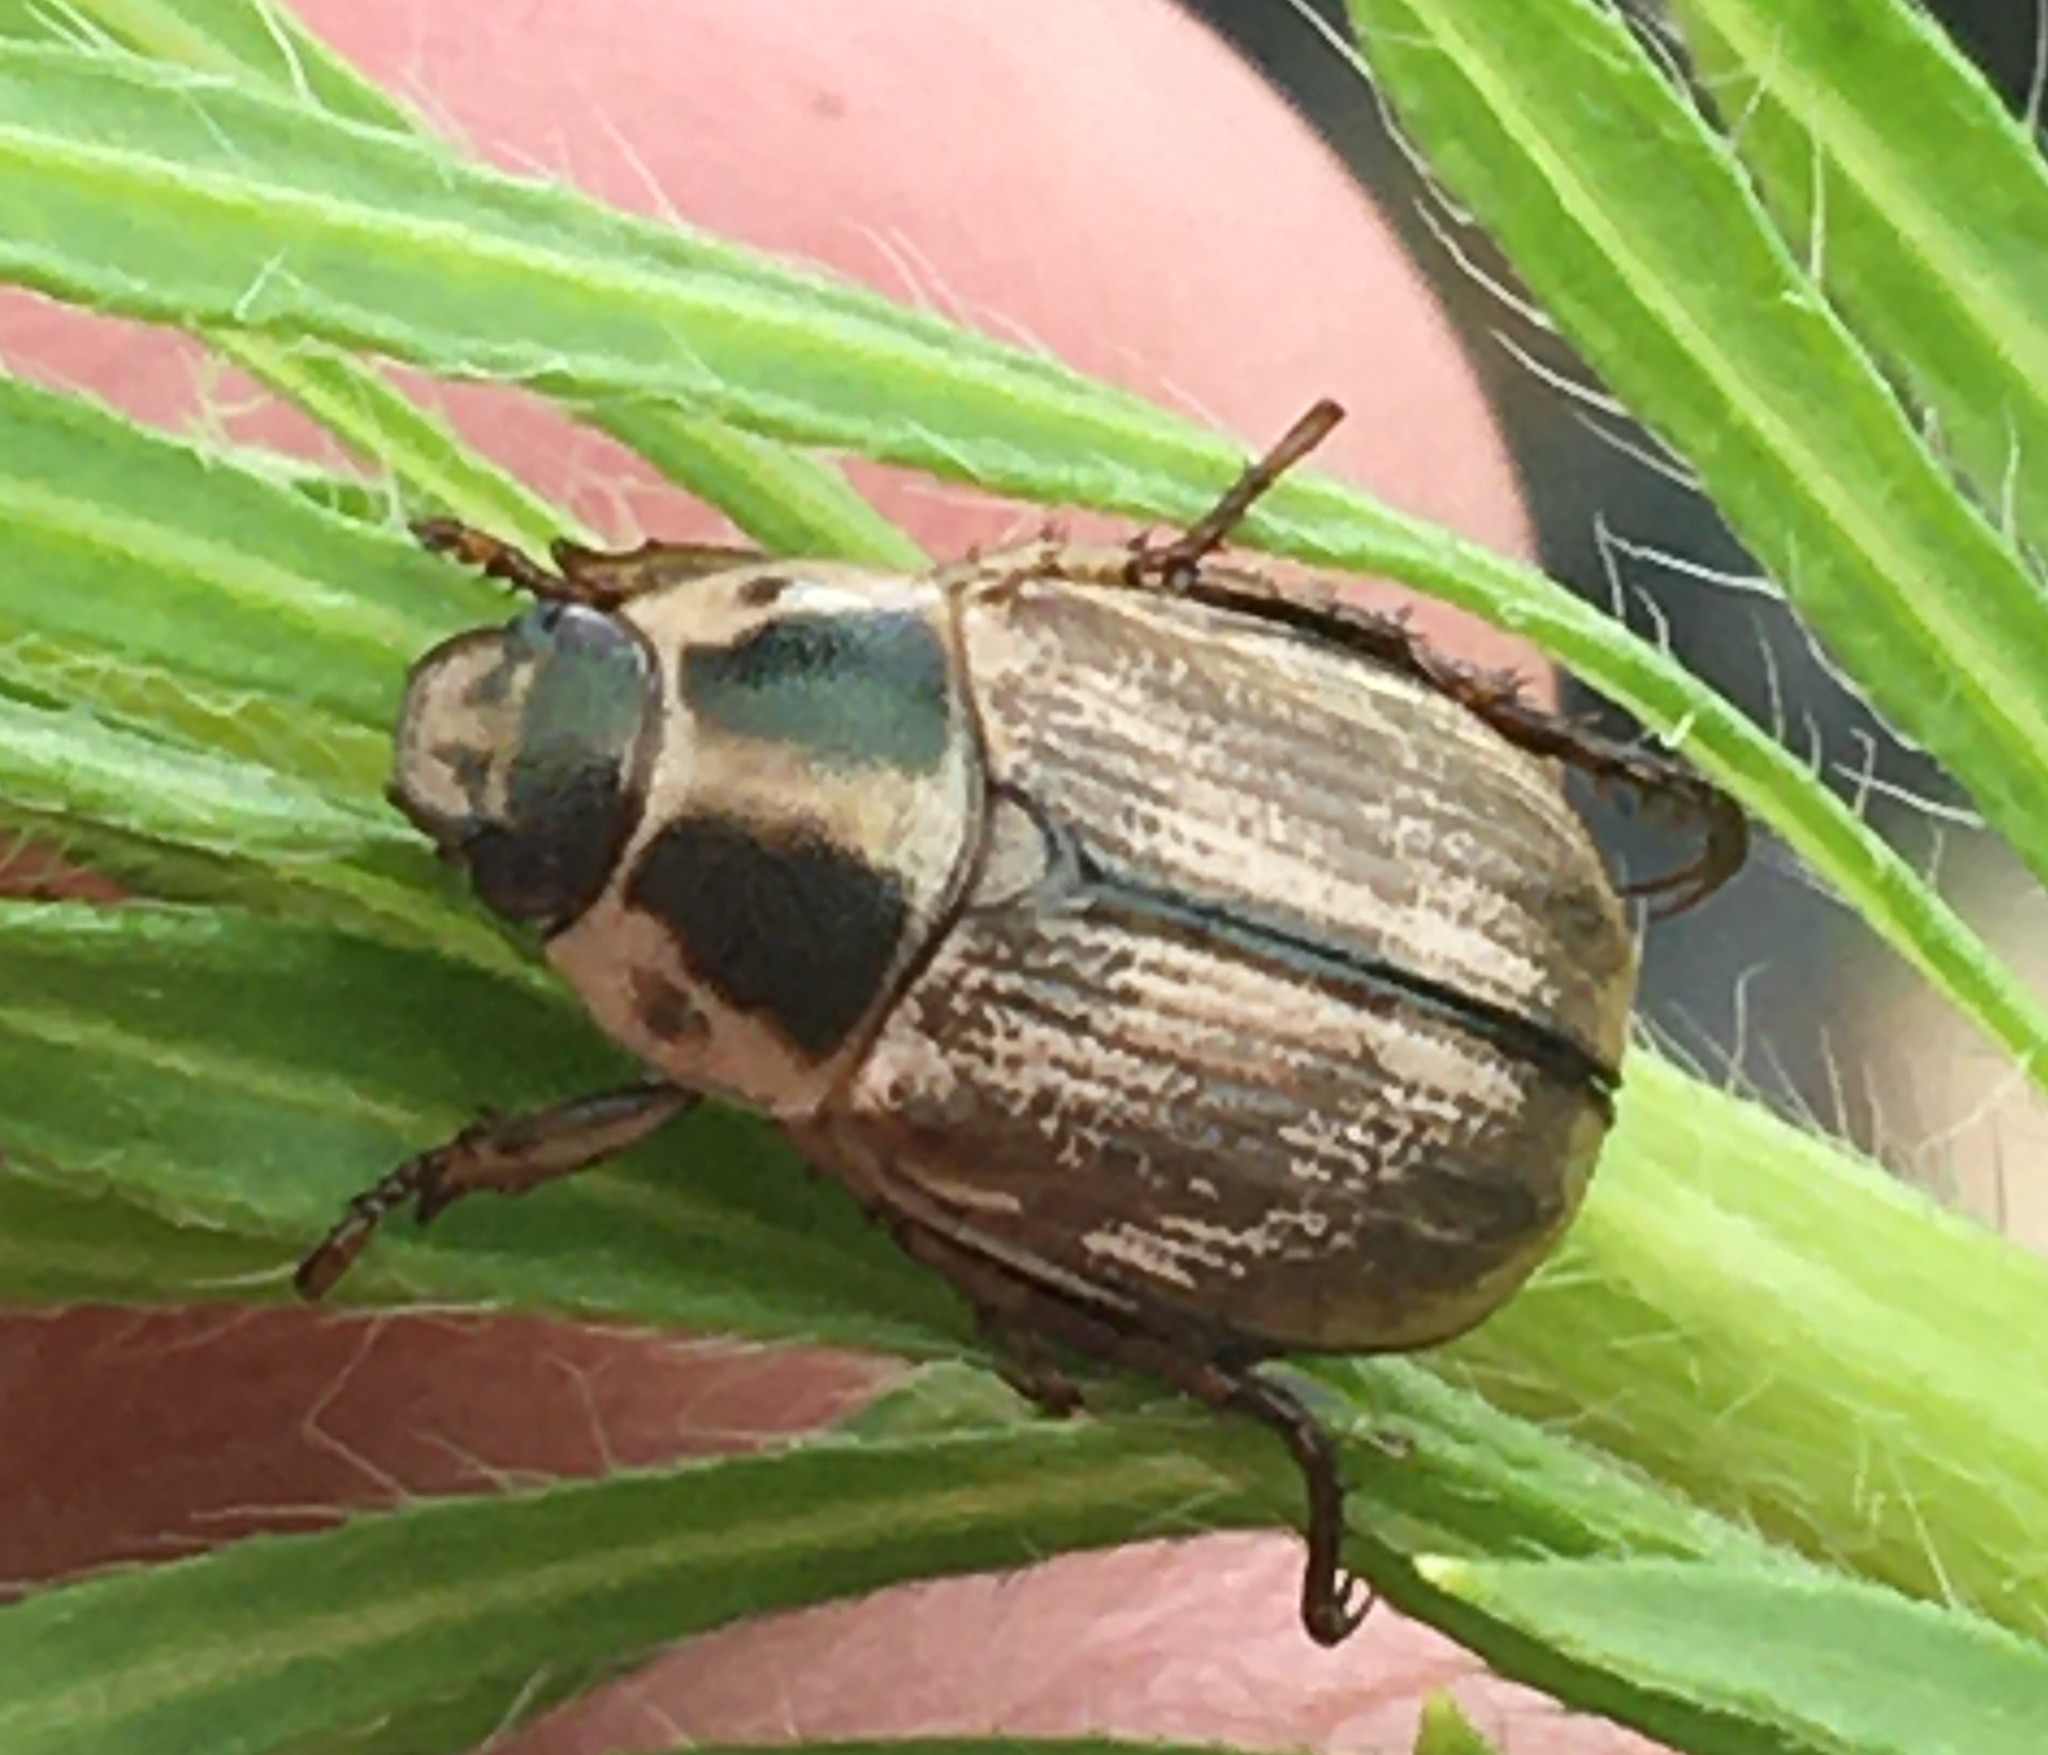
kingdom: Animalia
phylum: Arthropoda
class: Insecta
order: Coleoptera
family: Scarabaeidae
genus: Exomala
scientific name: Exomala orientalis
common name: Oriental beetle
